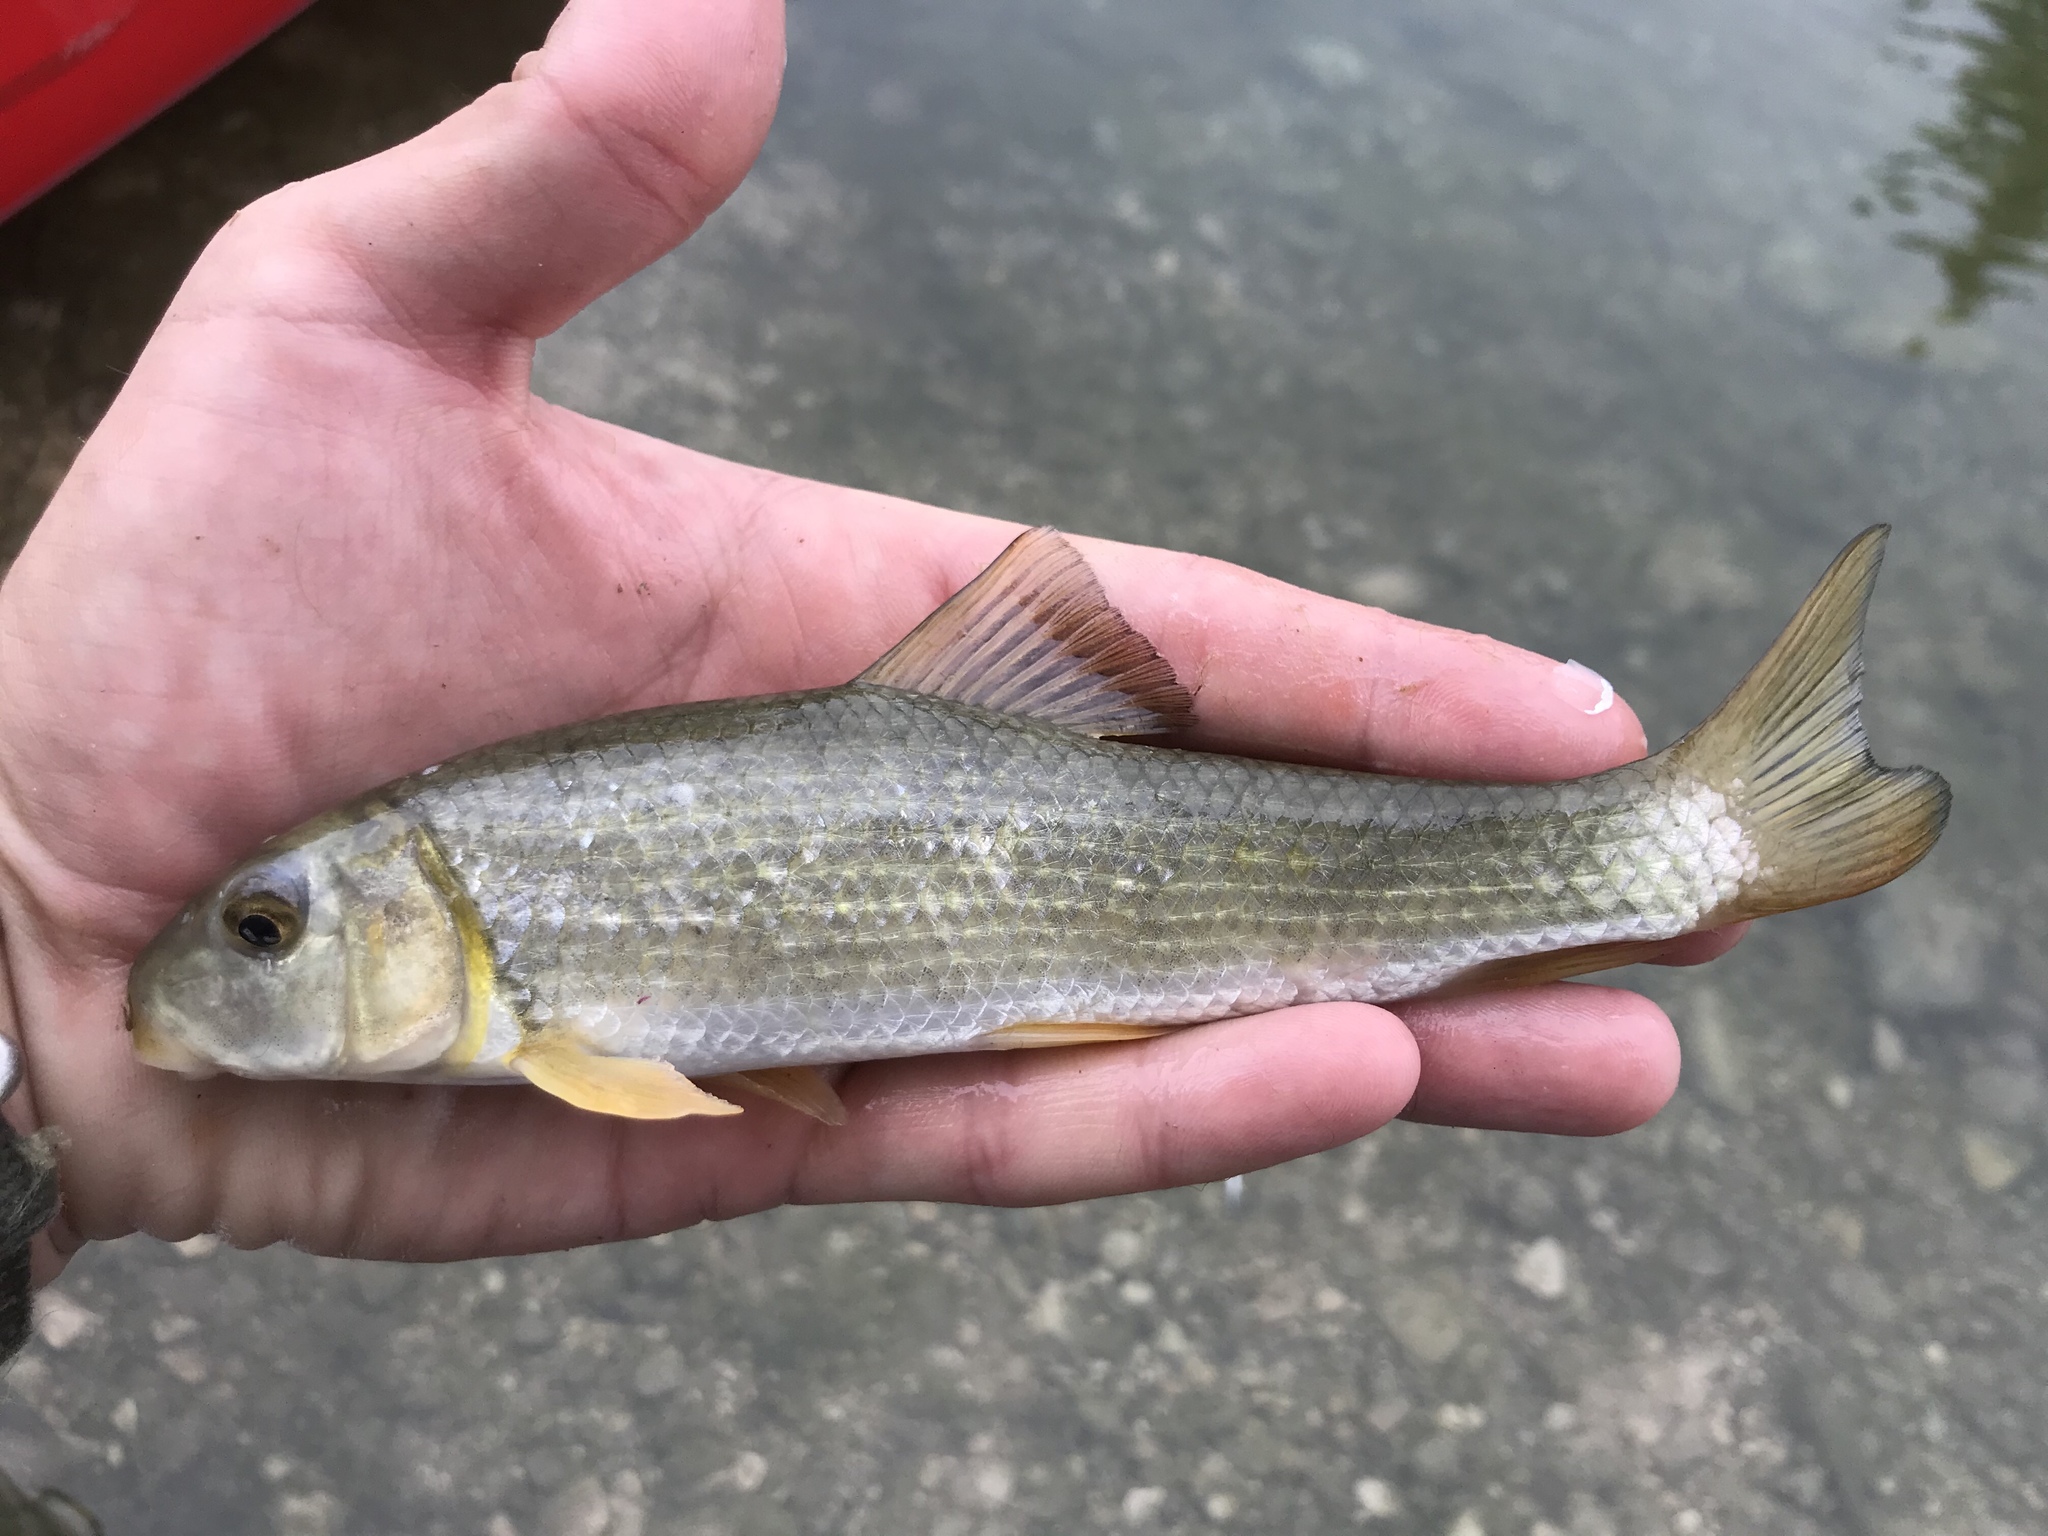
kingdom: Animalia
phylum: Chordata
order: Cypriniformes
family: Catostomidae
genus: Moxostoma
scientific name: Moxostoma congestum
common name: Gray redhorse
